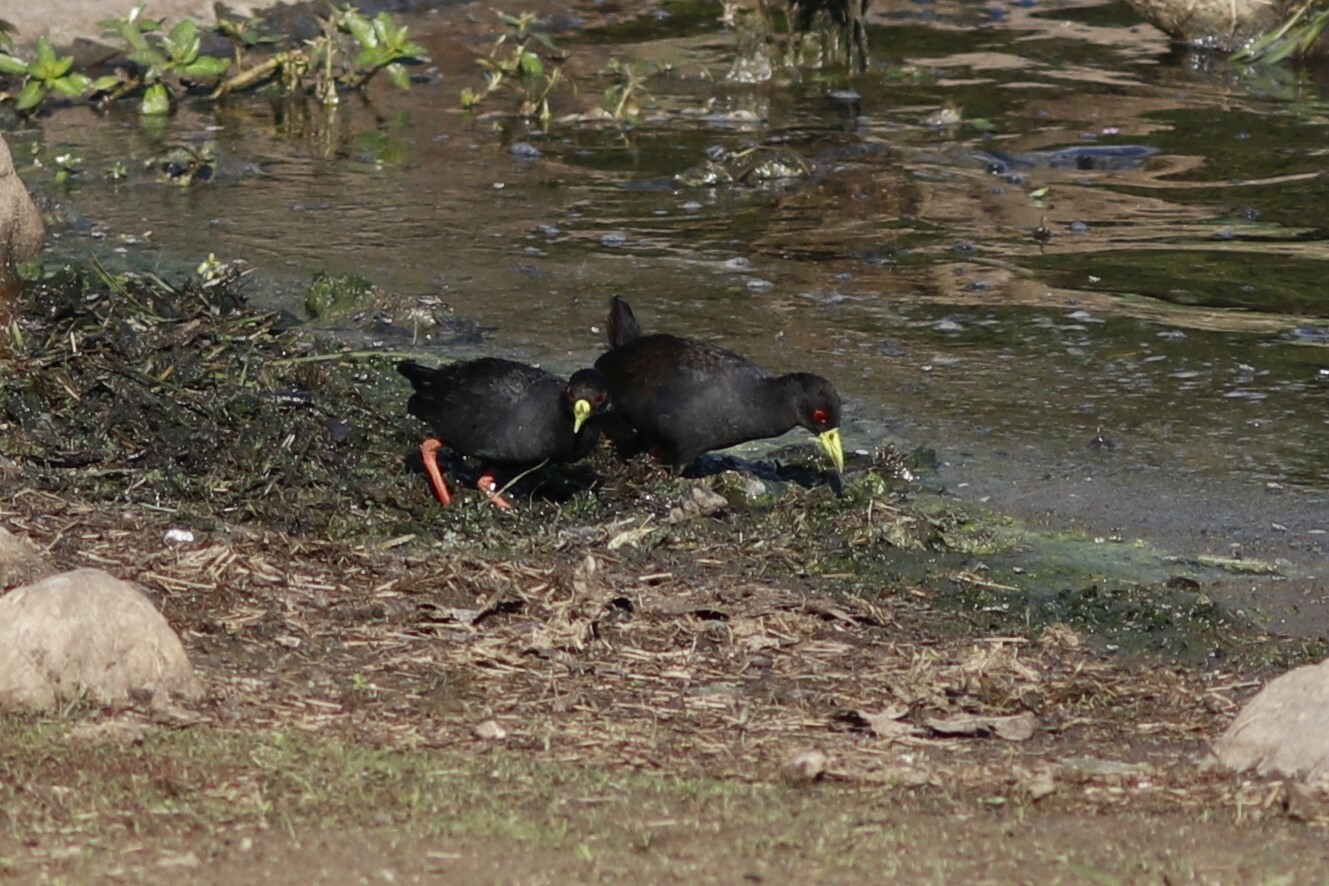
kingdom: Animalia
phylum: Chordata
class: Aves
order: Gruiformes
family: Rallidae
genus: Amaurornis
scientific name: Amaurornis flavirostra
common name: Black crake
